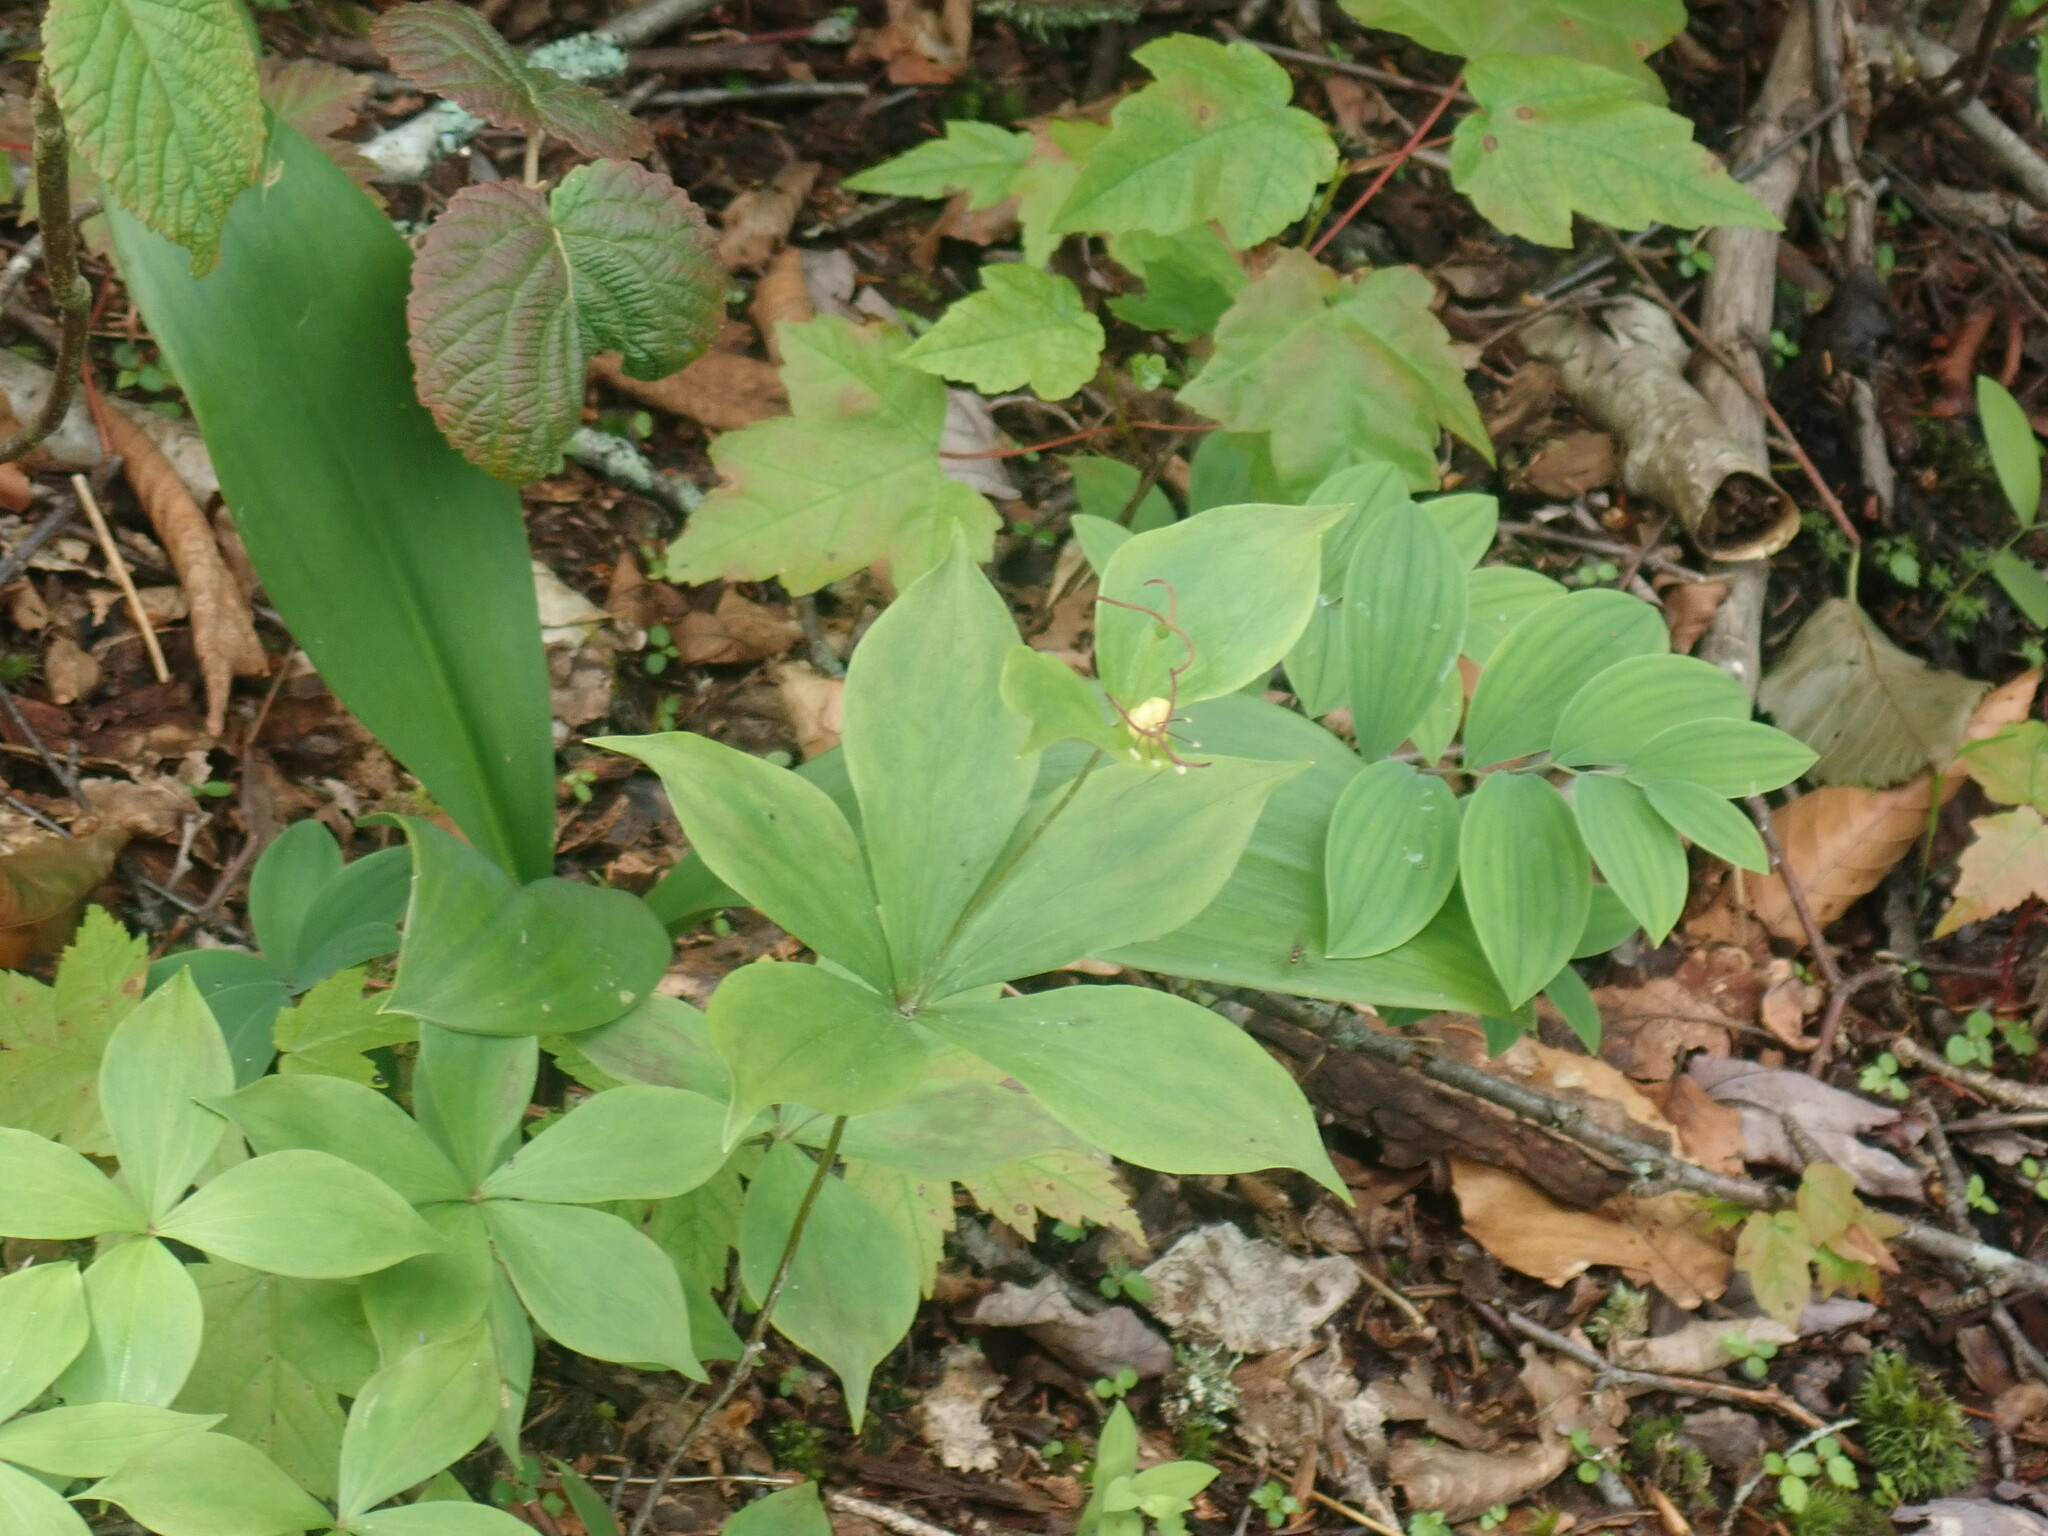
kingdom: Plantae
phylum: Tracheophyta
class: Liliopsida
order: Liliales
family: Liliaceae
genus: Medeola
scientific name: Medeola virginiana
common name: Indian cucumber-root
